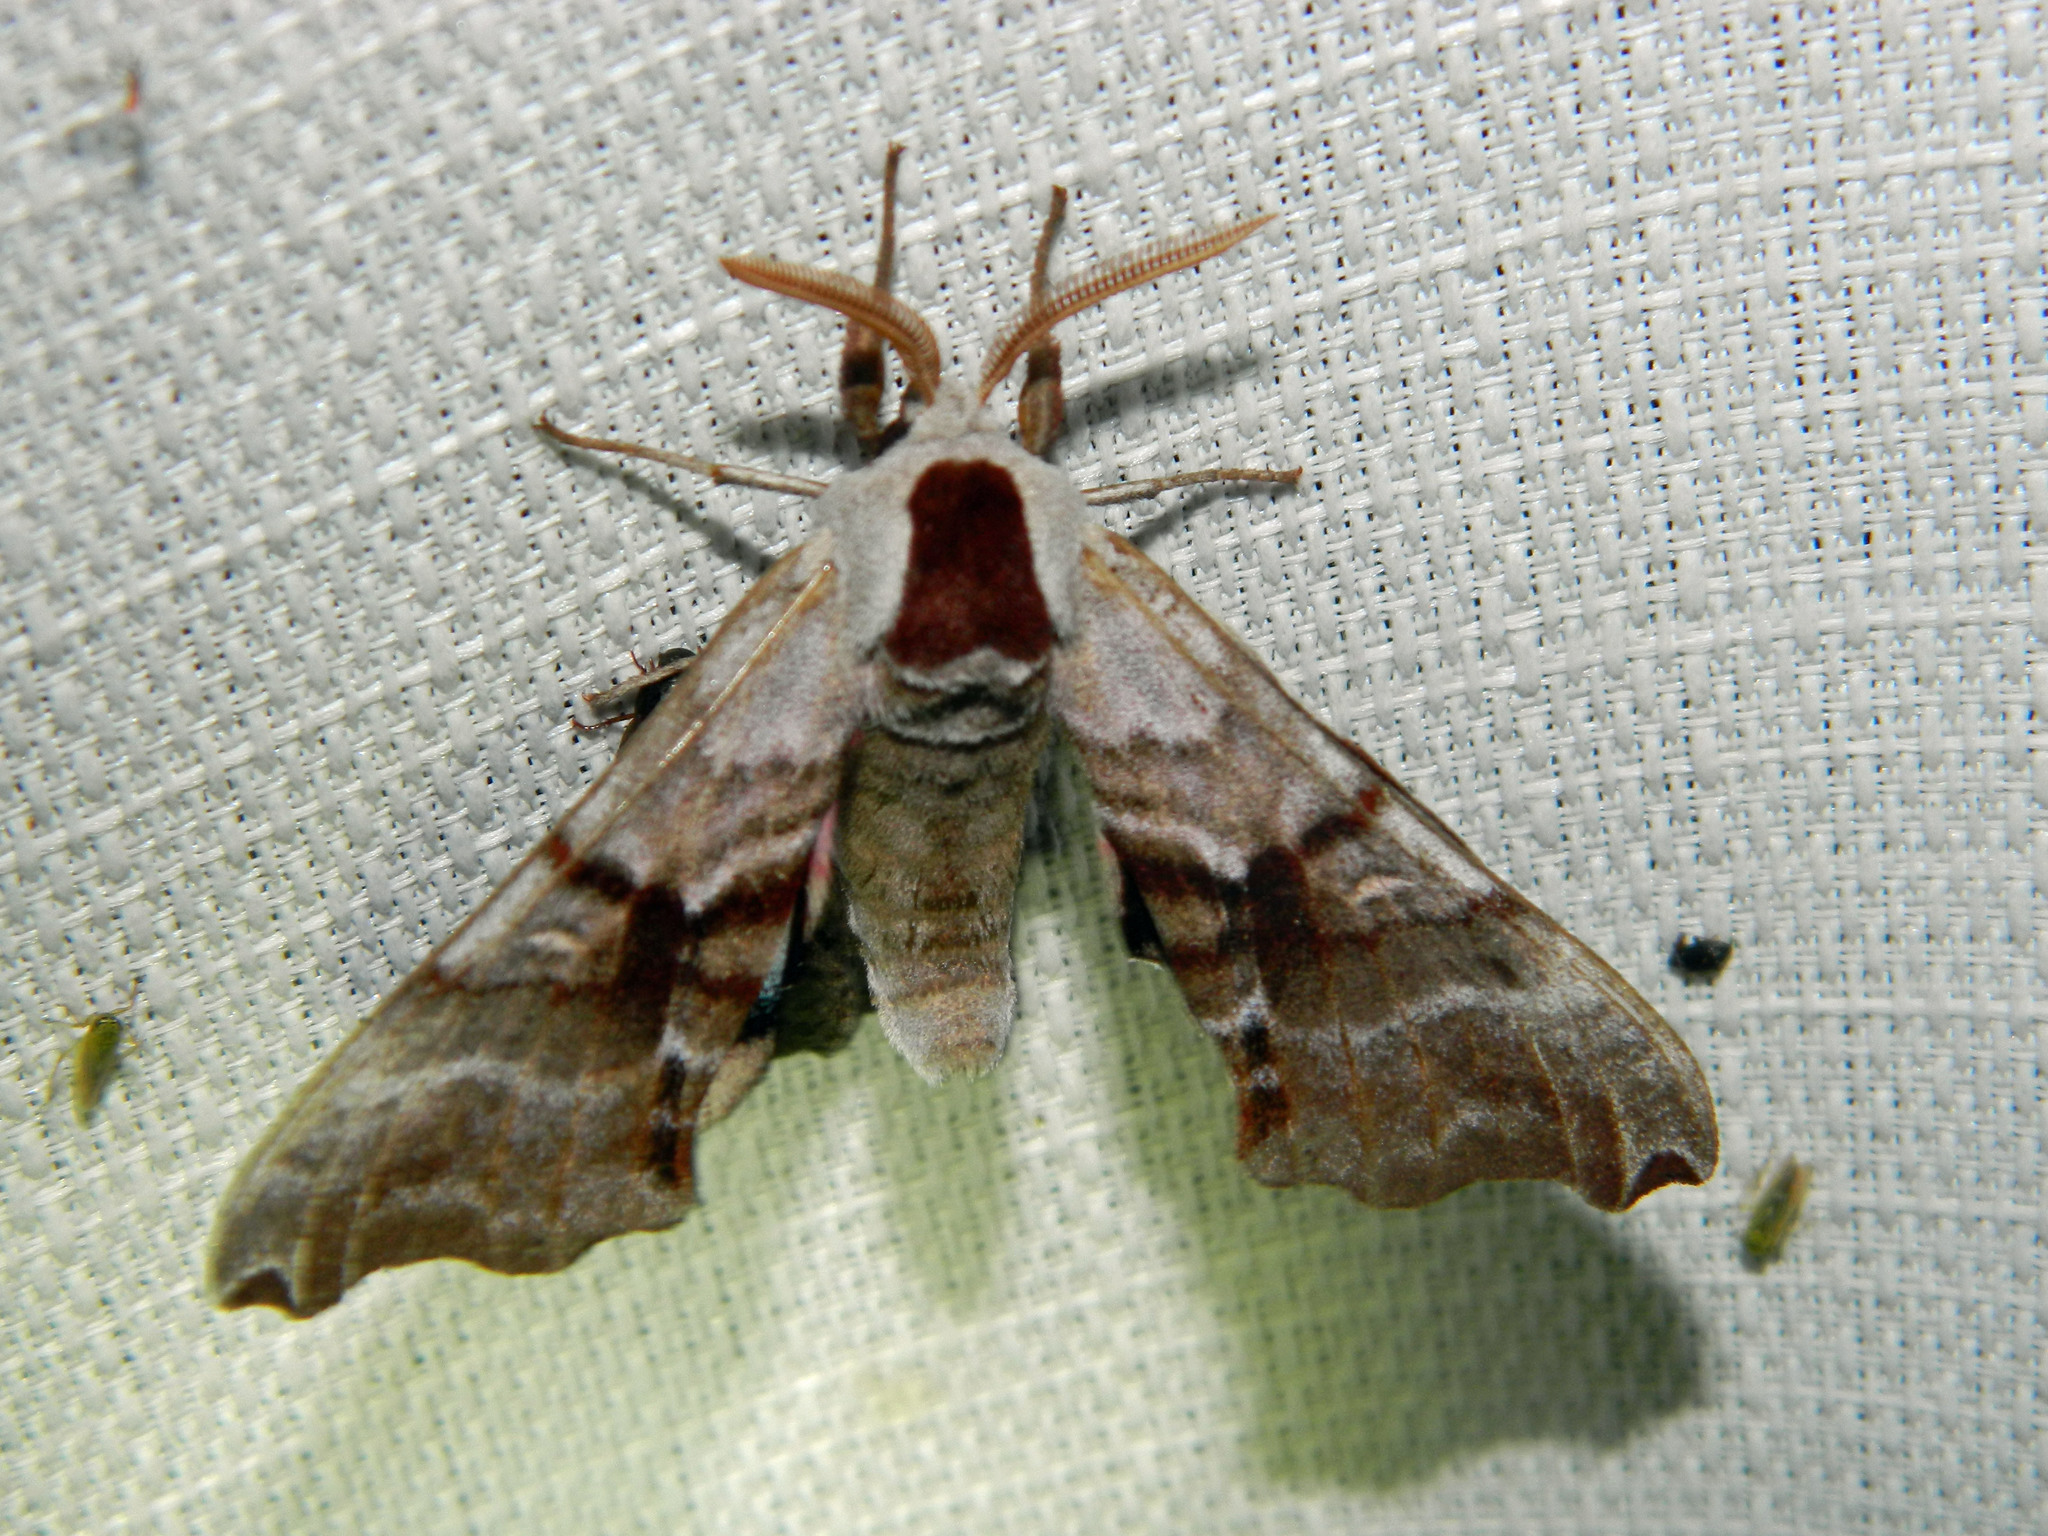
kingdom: Animalia
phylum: Arthropoda
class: Insecta
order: Lepidoptera
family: Sphingidae
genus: Smerinthus
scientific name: Smerinthus jamaicensis
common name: Twin spotted sphinx
